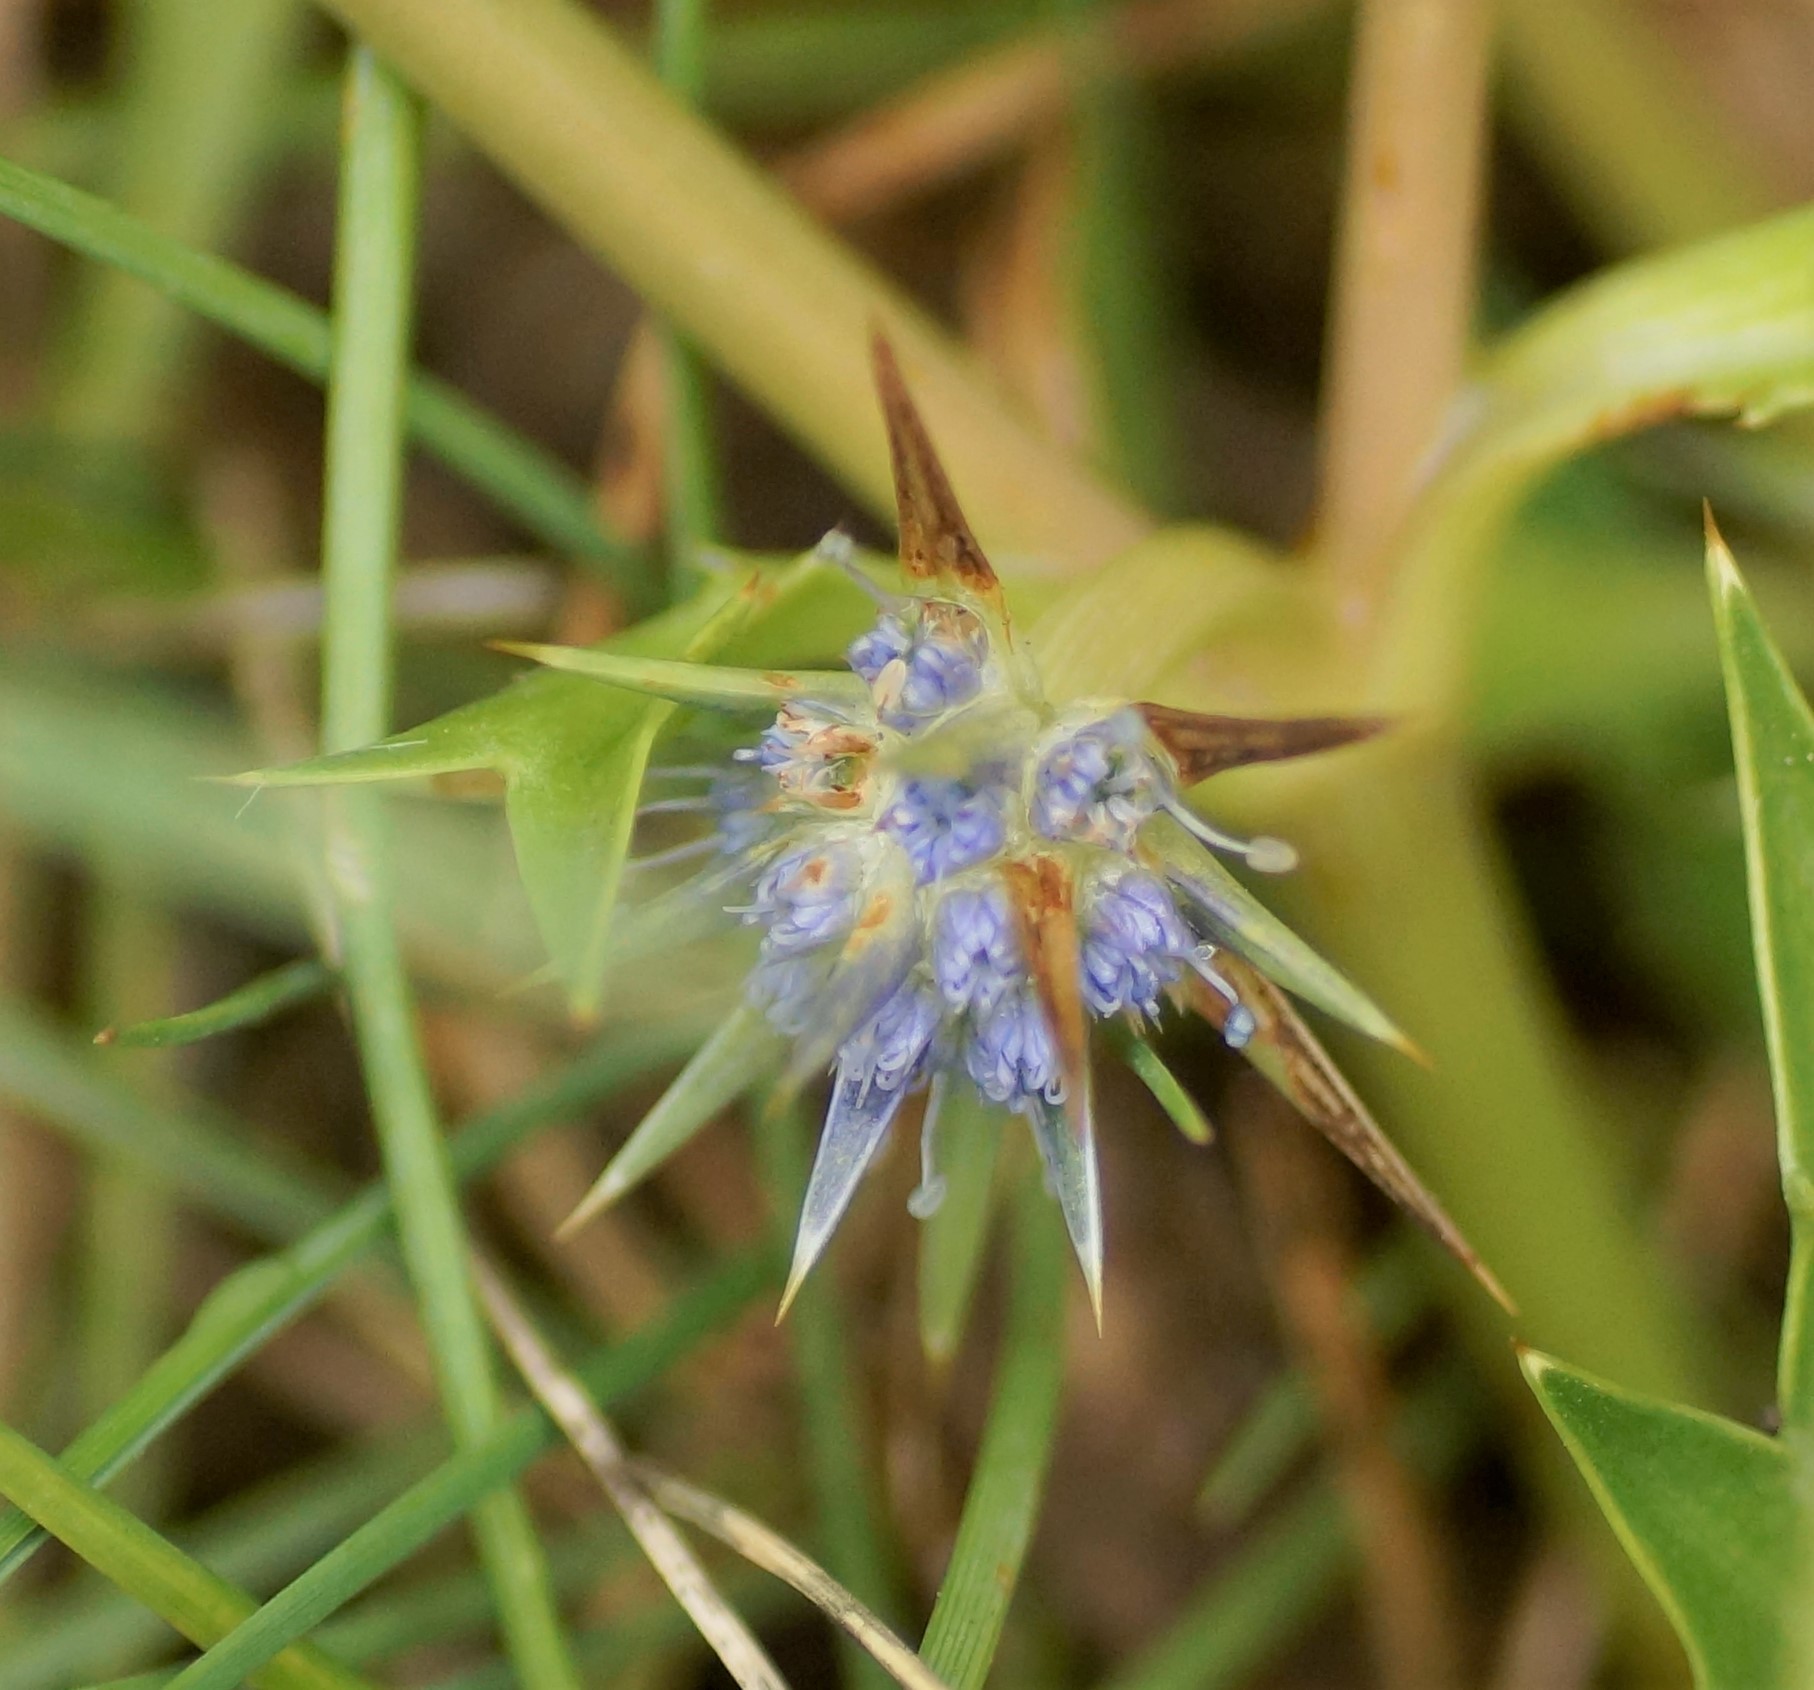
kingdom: Plantae
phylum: Tracheophyta
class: Magnoliopsida
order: Apiales
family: Apiaceae
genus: Eryngium
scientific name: Eryngium vesiculosum
